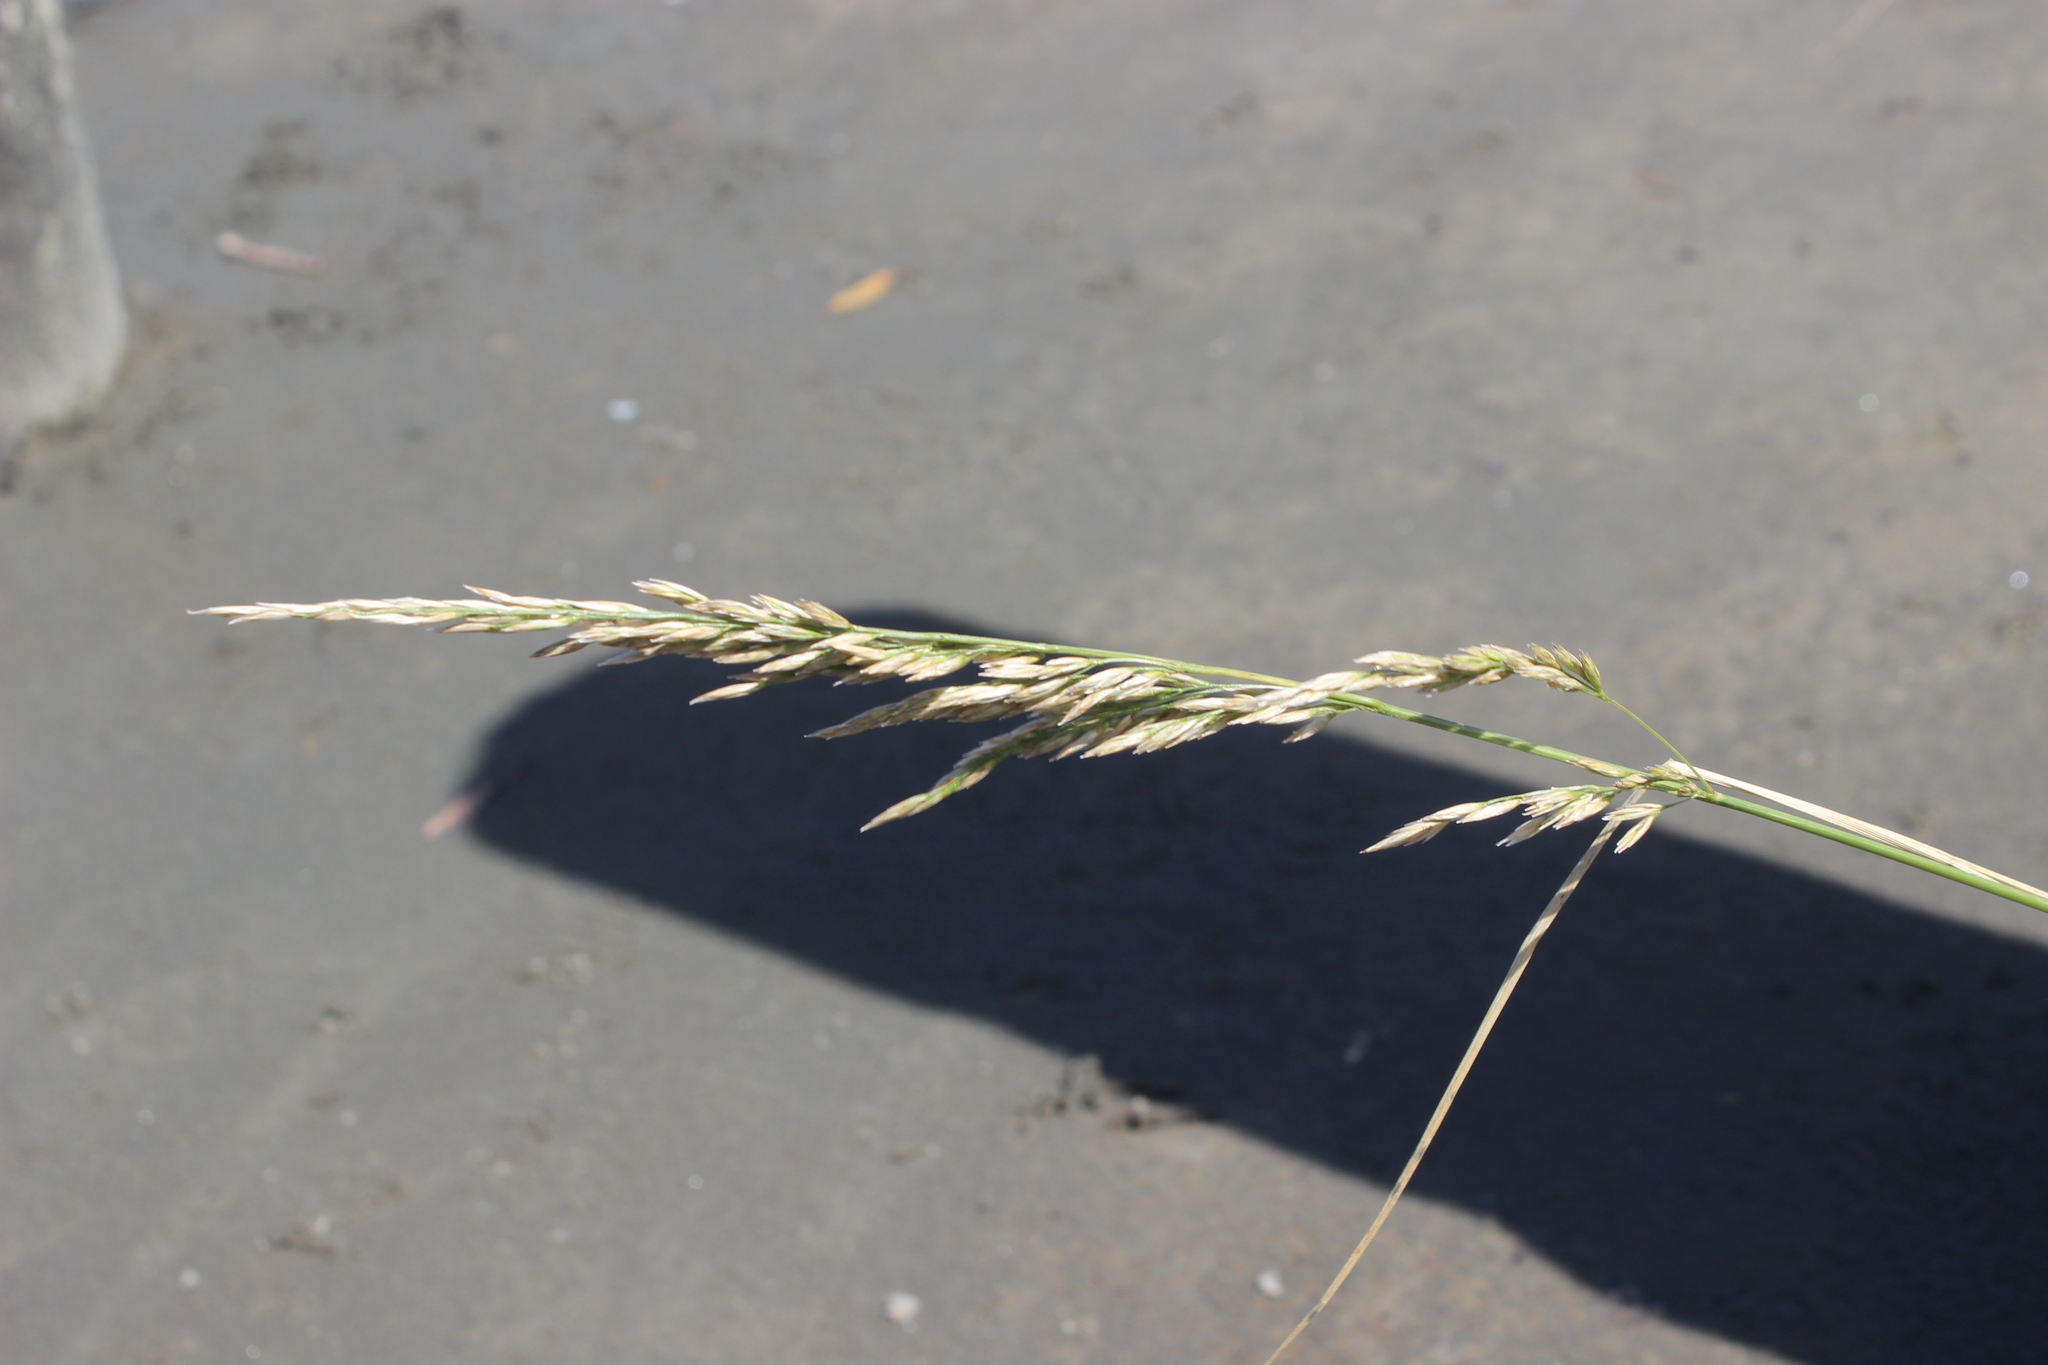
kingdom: Plantae
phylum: Tracheophyta
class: Liliopsida
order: Poales
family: Poaceae
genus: Lolium
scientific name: Lolium arundinaceum
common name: Reed fescue
